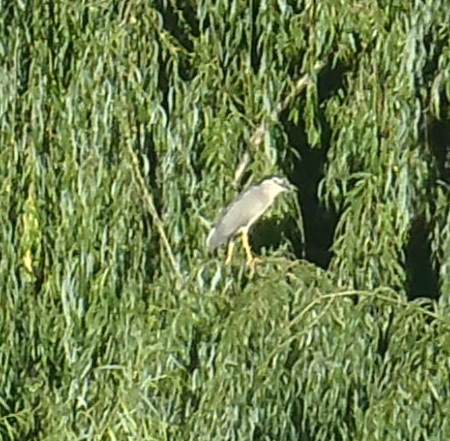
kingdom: Animalia
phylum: Chordata
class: Aves
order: Pelecaniformes
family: Ardeidae
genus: Nycticorax
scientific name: Nycticorax nycticorax
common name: Black-crowned night heron
